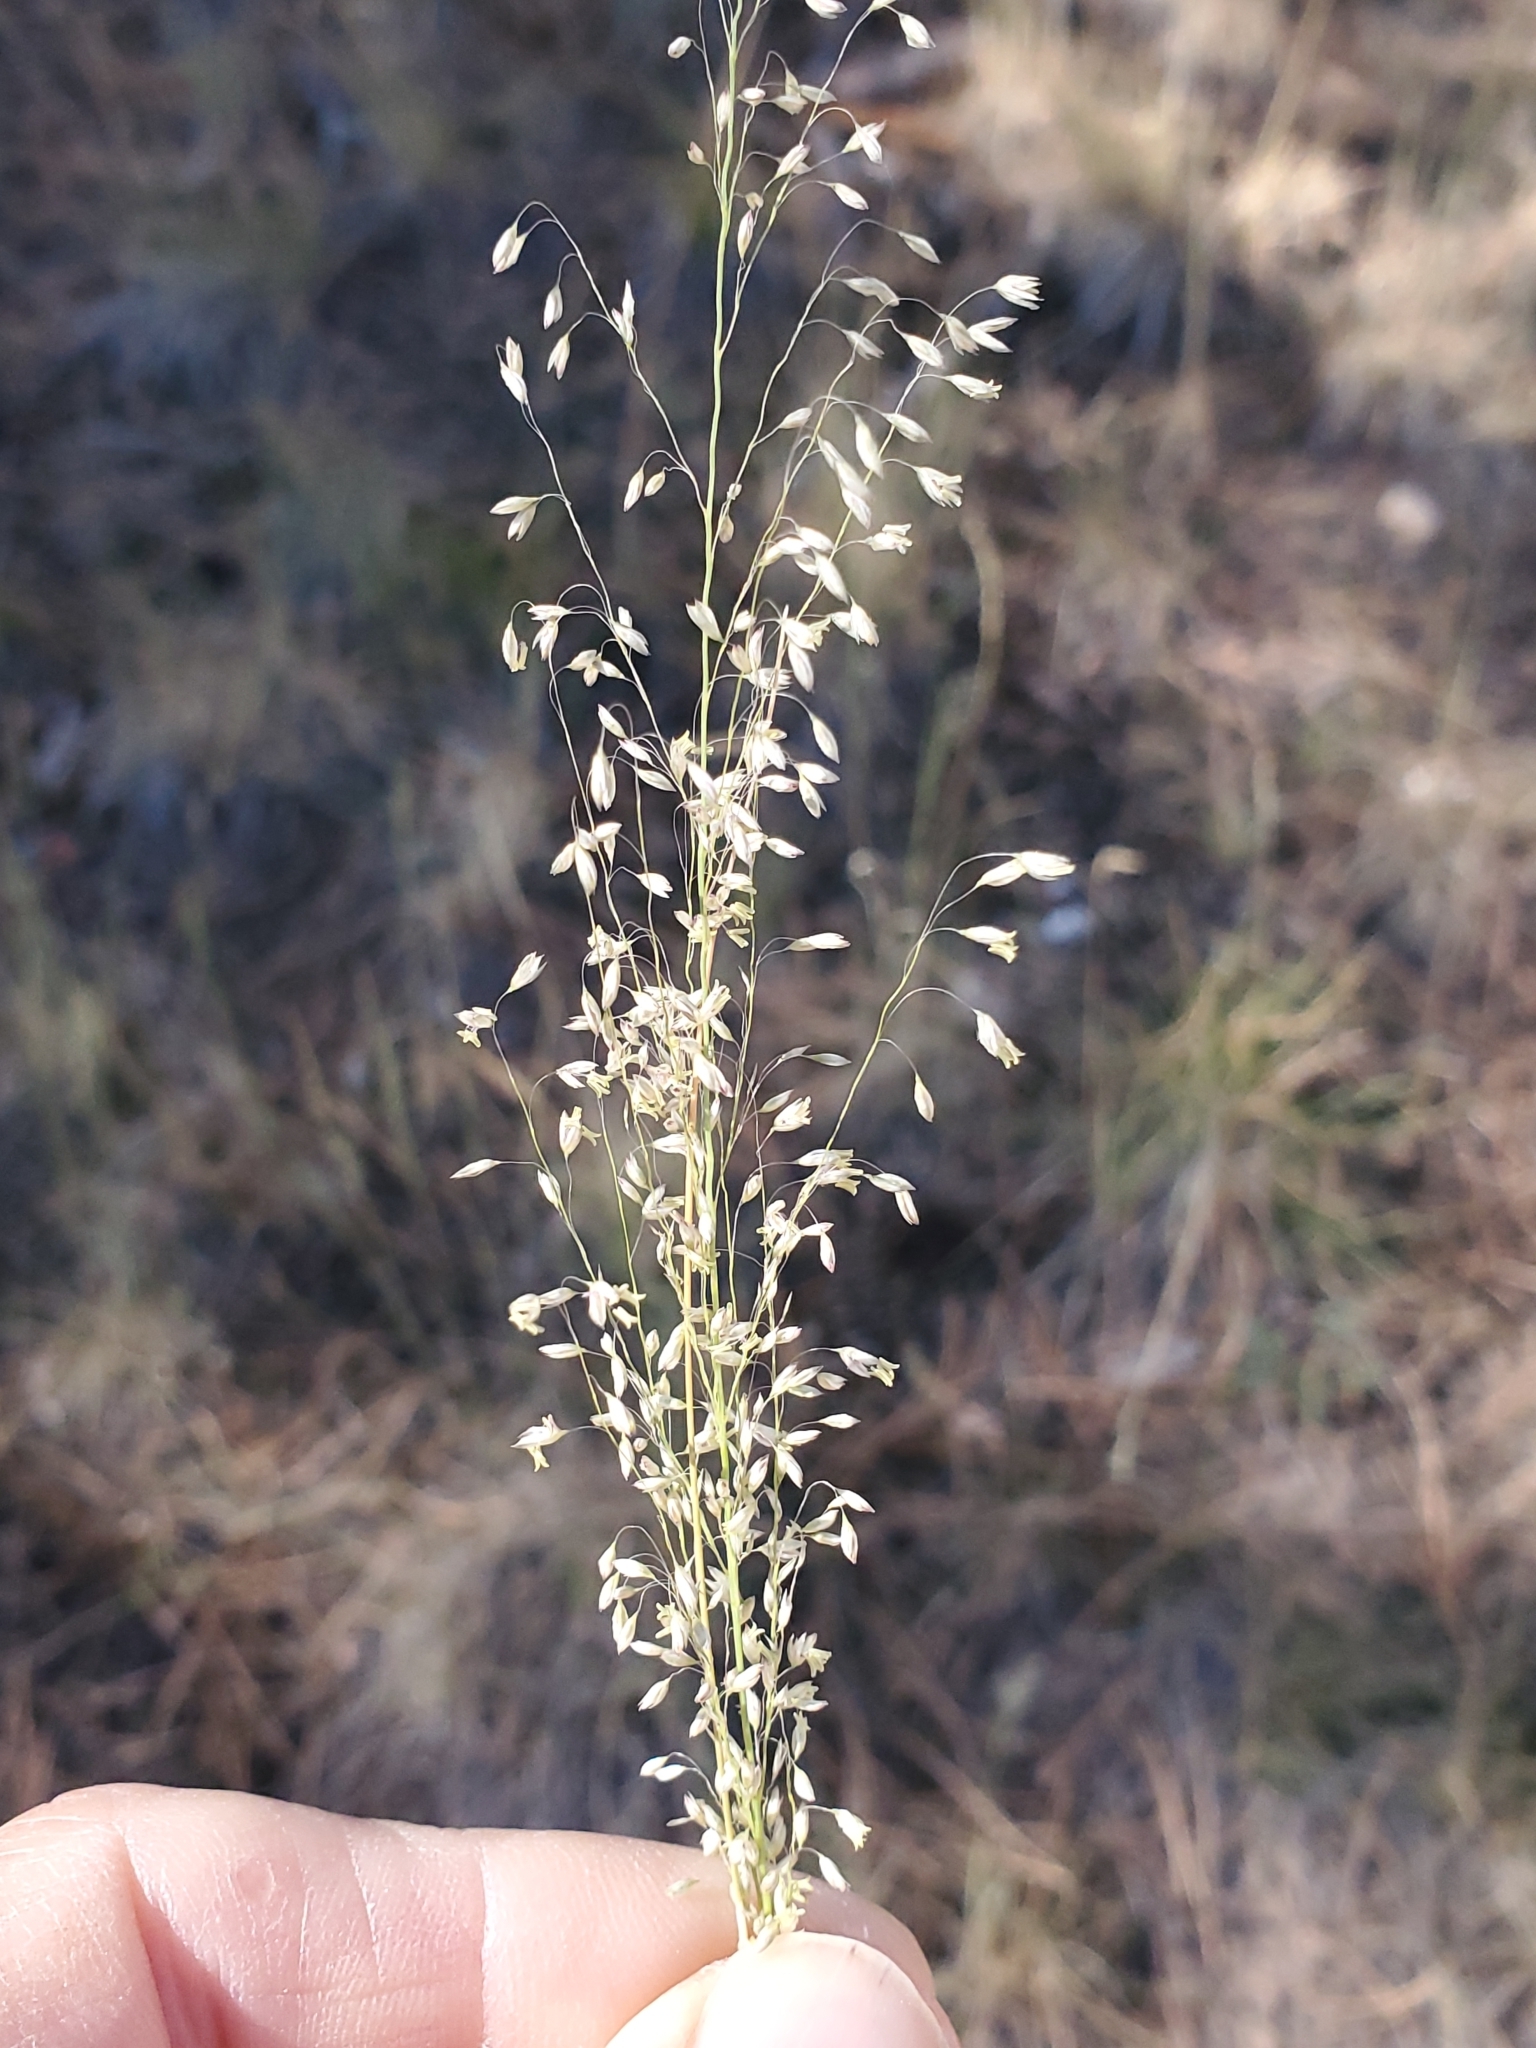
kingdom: Plantae
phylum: Tracheophyta
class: Liliopsida
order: Poales
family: Poaceae
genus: Muhlenbergia
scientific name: Muhlenbergia tricholepis
